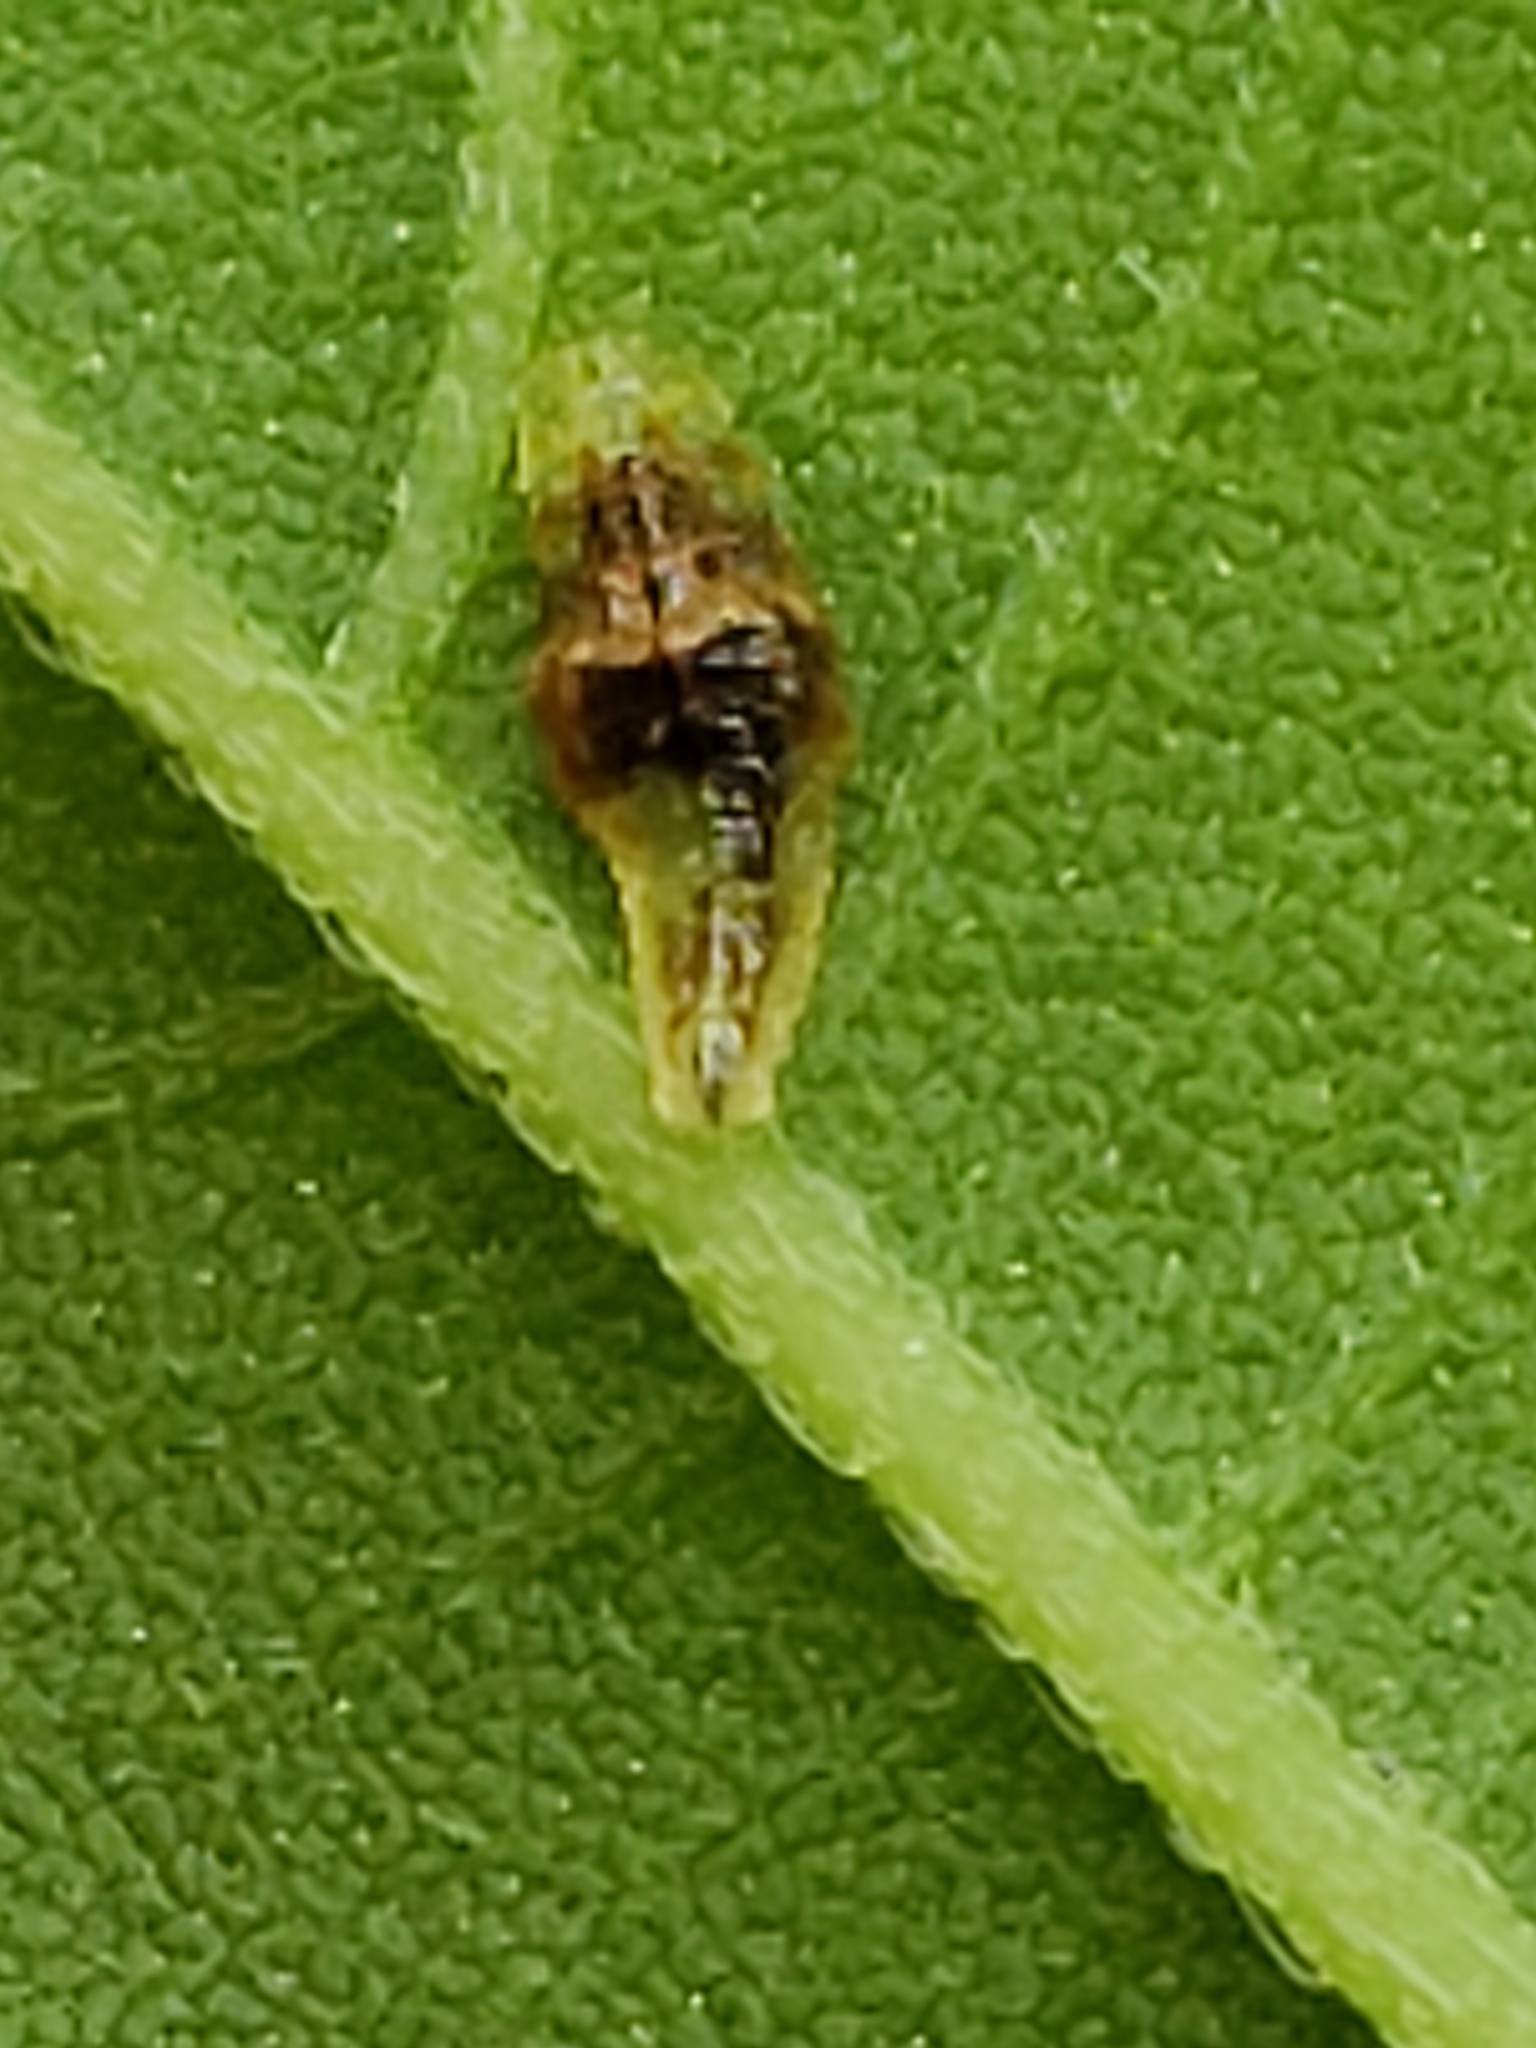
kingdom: Animalia
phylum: Arthropoda
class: Insecta
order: Diptera
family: Syrphidae
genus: Ocyptamus
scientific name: Ocyptamus fuscipennis
